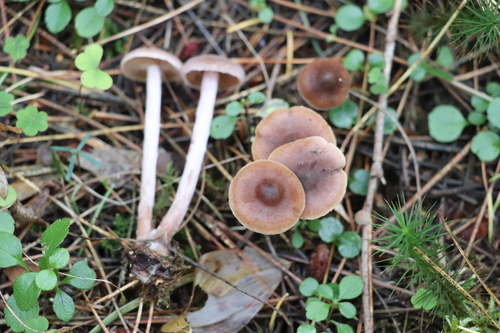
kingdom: Fungi
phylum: Basidiomycota
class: Agaricomycetes
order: Agaricales
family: Cortinariaceae
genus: Cortinarius
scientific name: Cortinarius
